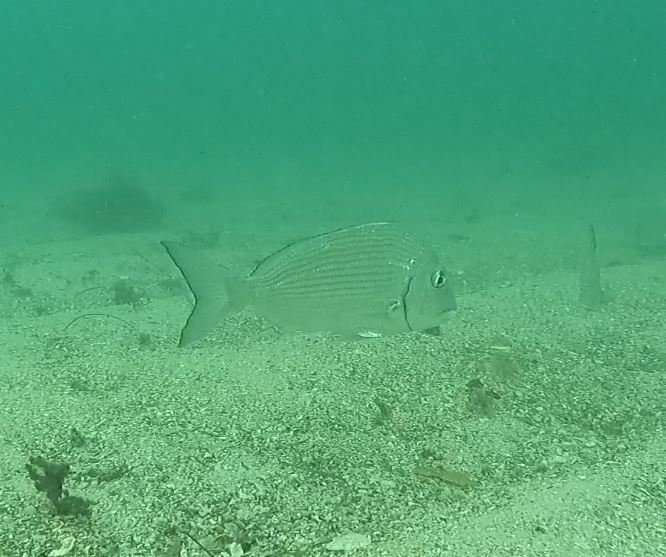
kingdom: Animalia
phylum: Chordata
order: Perciformes
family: Sparidae
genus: Rhabdosargus
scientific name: Rhabdosargus sarba
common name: Goldlined seabream
